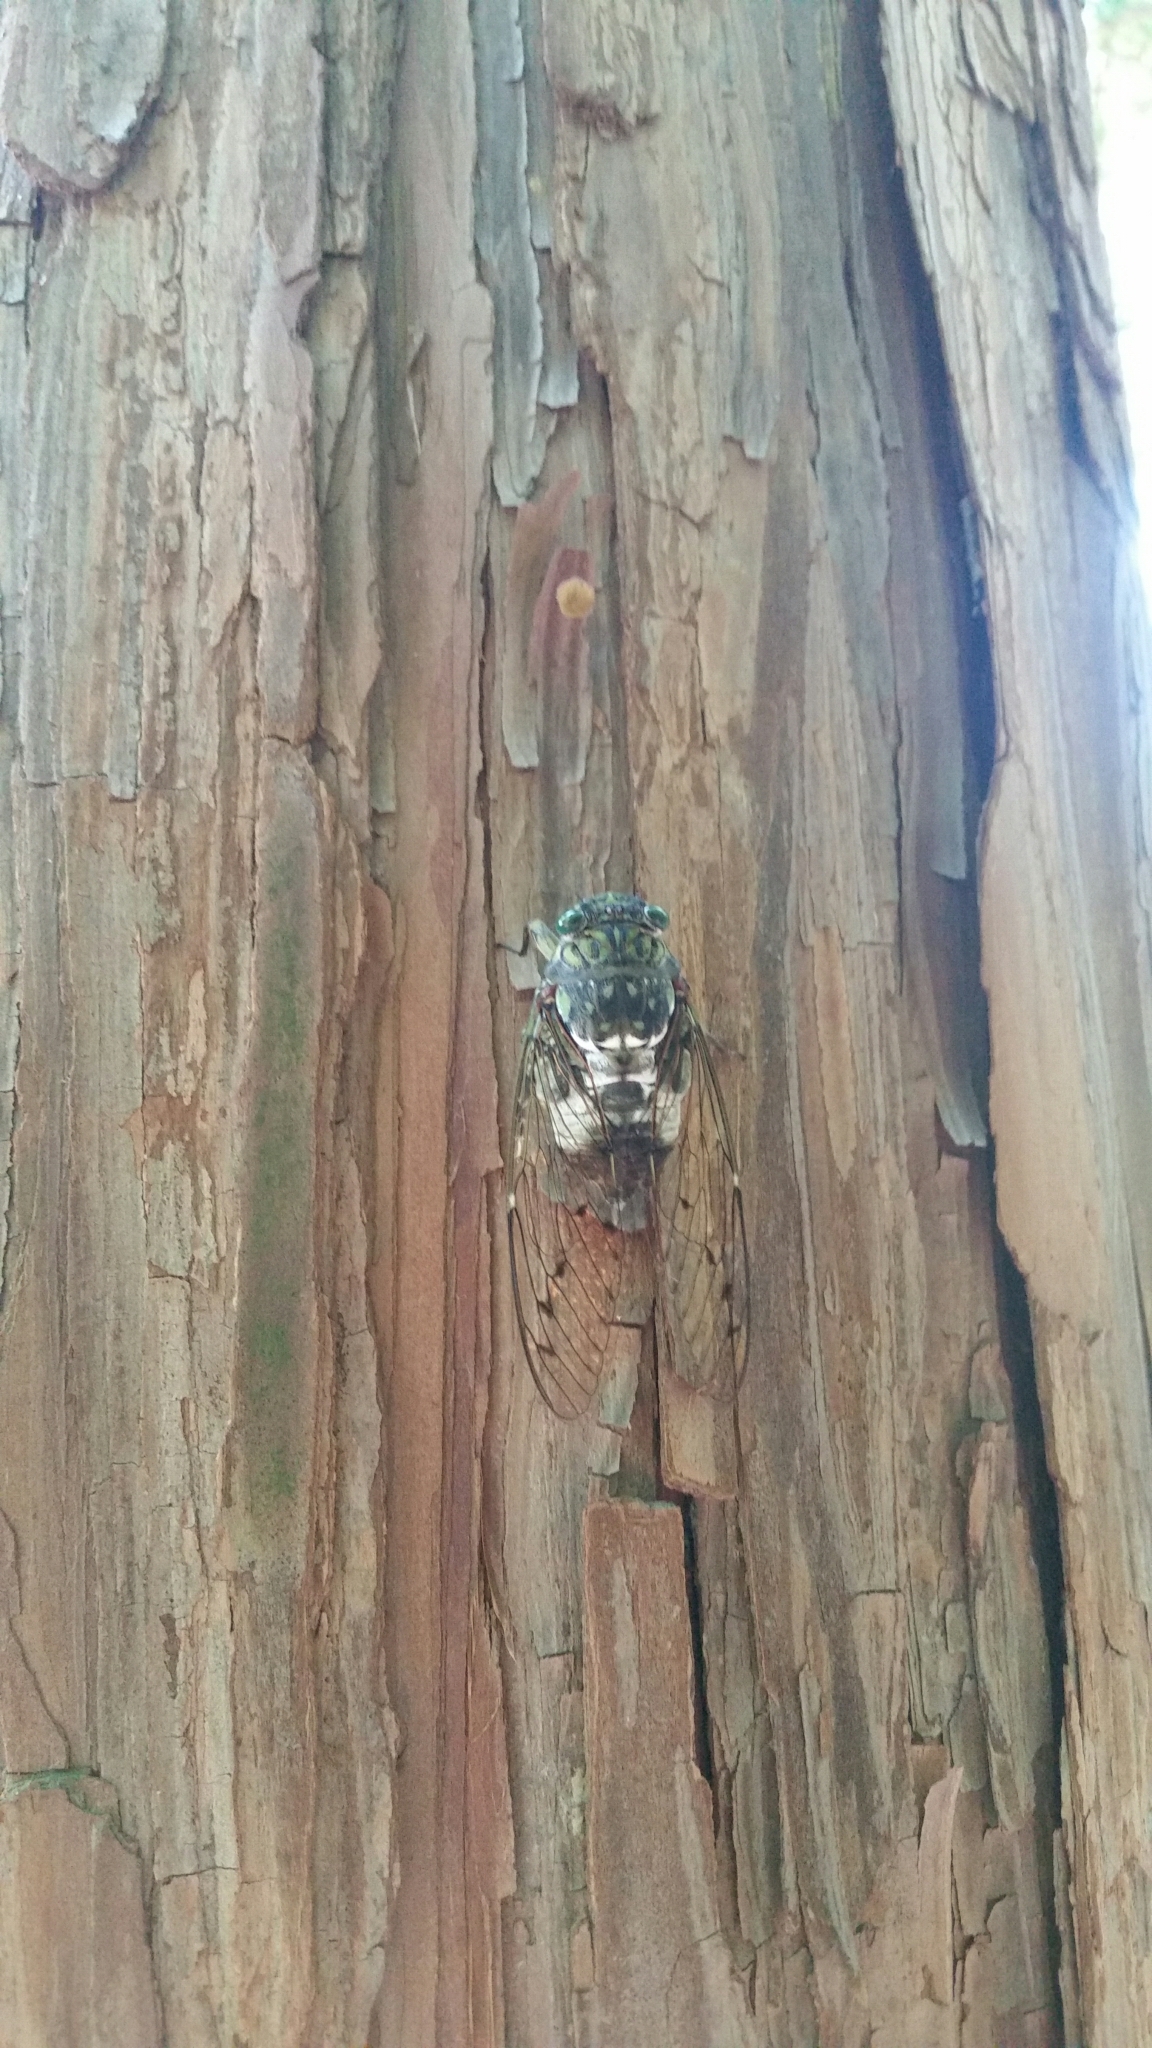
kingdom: Animalia
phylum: Arthropoda
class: Insecta
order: Hemiptera
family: Cicadidae
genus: Hyalessa
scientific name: Hyalessa maculaticollis
